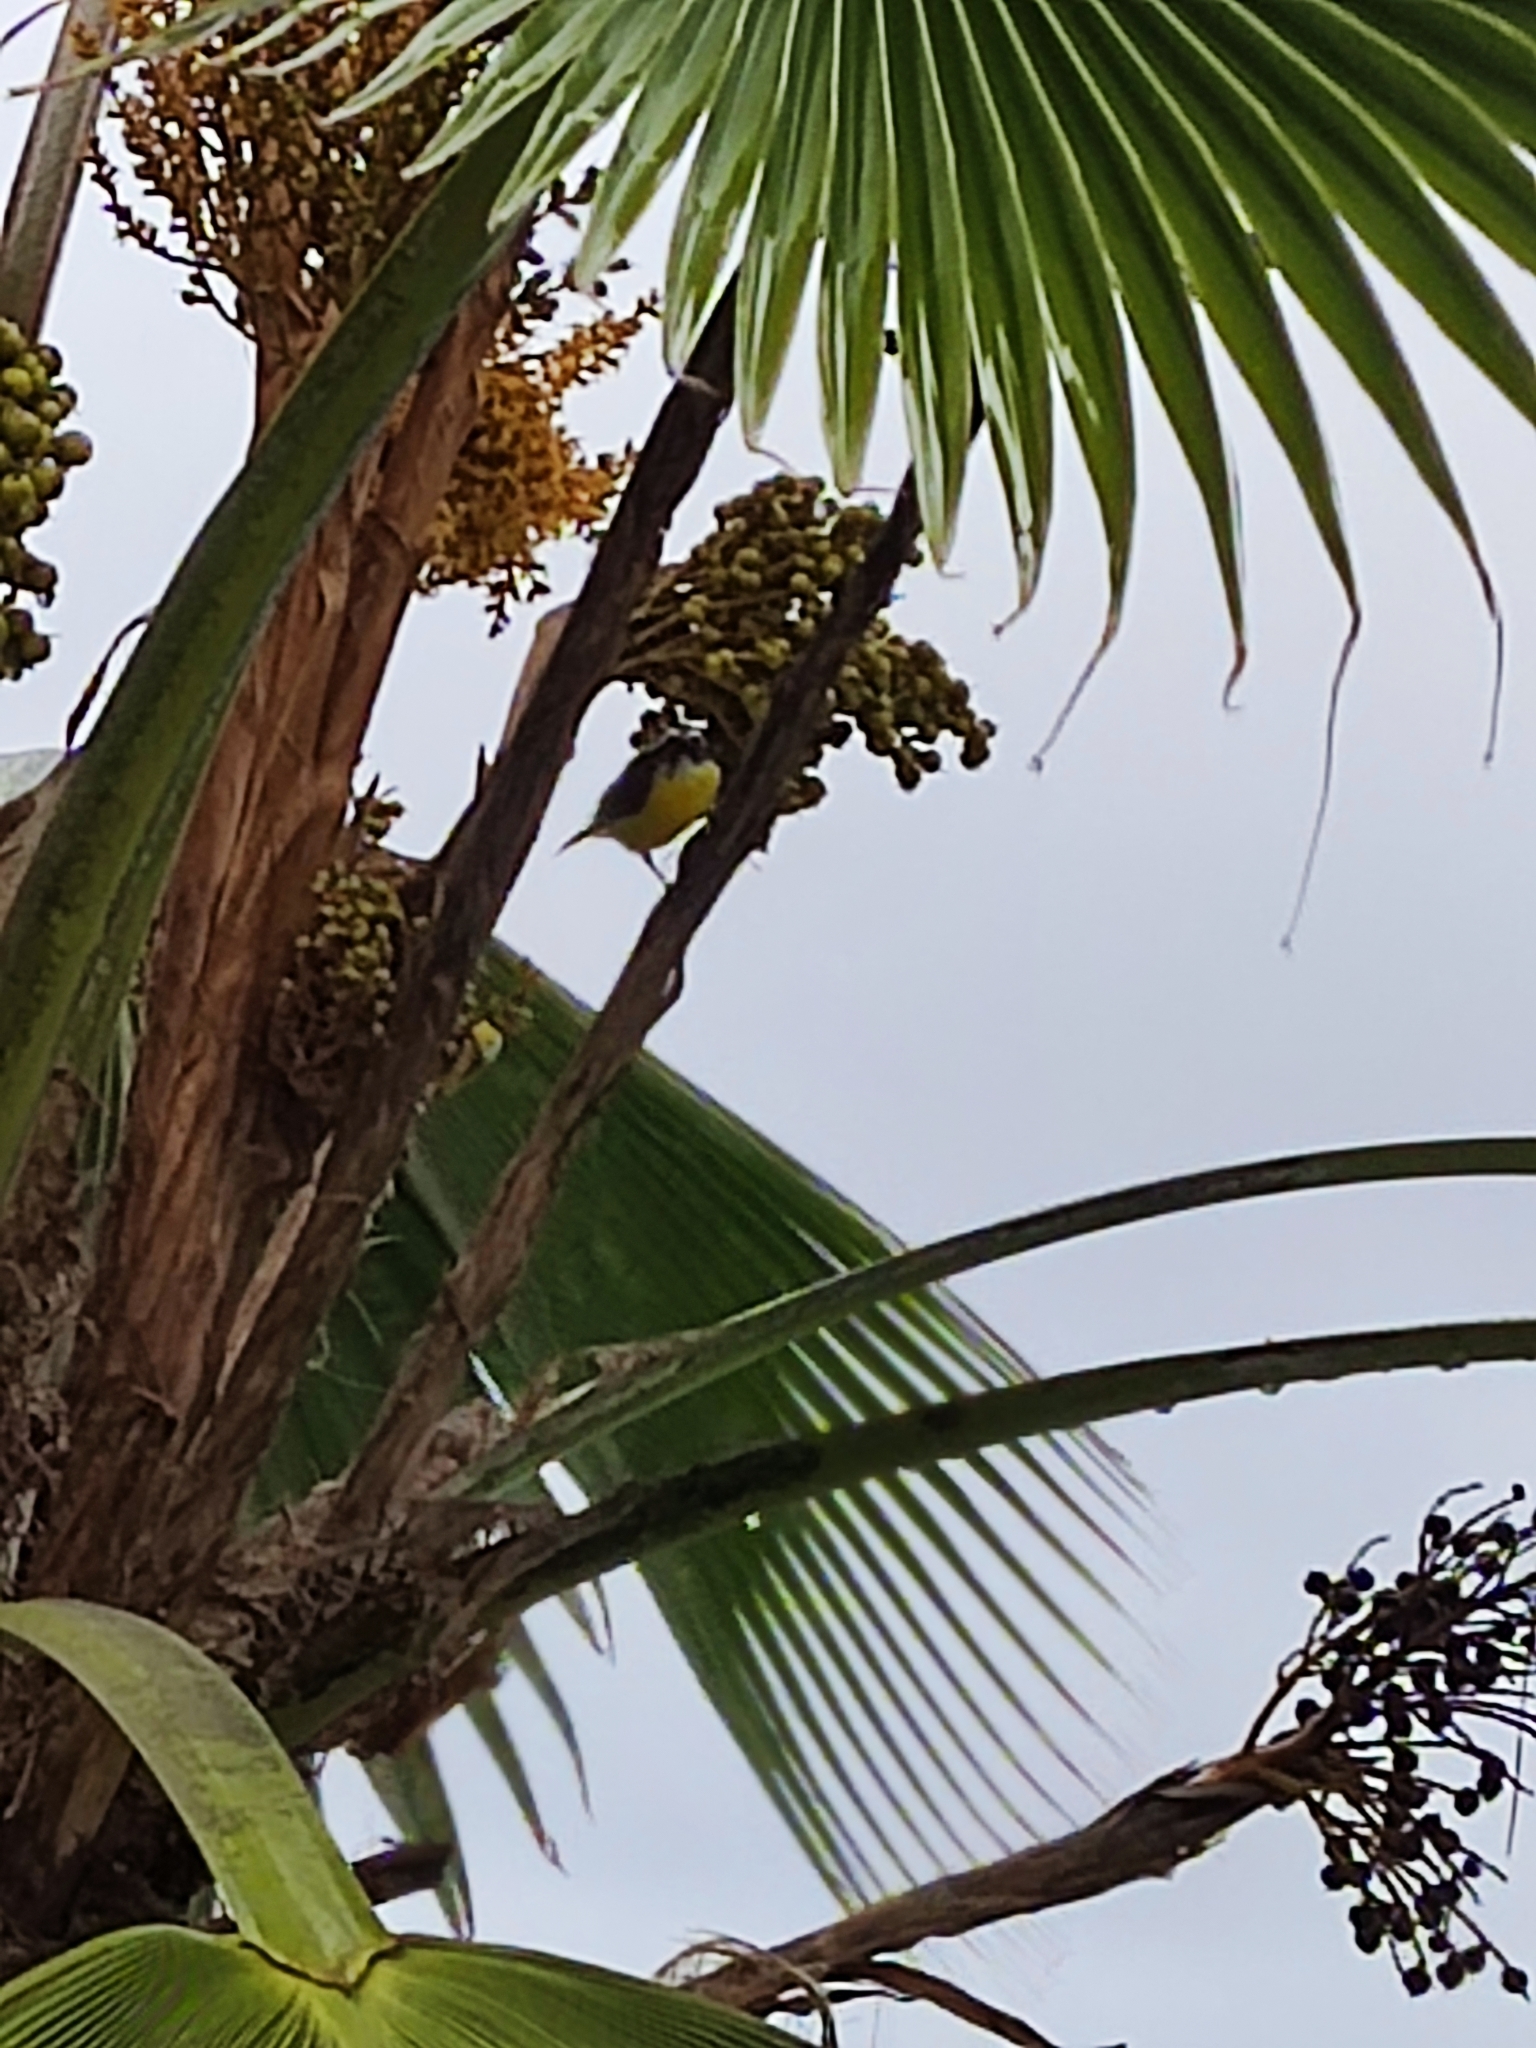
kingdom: Animalia
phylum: Chordata
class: Aves
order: Passeriformes
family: Thraupidae
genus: Coereba
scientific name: Coereba flaveola
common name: Bananaquit
